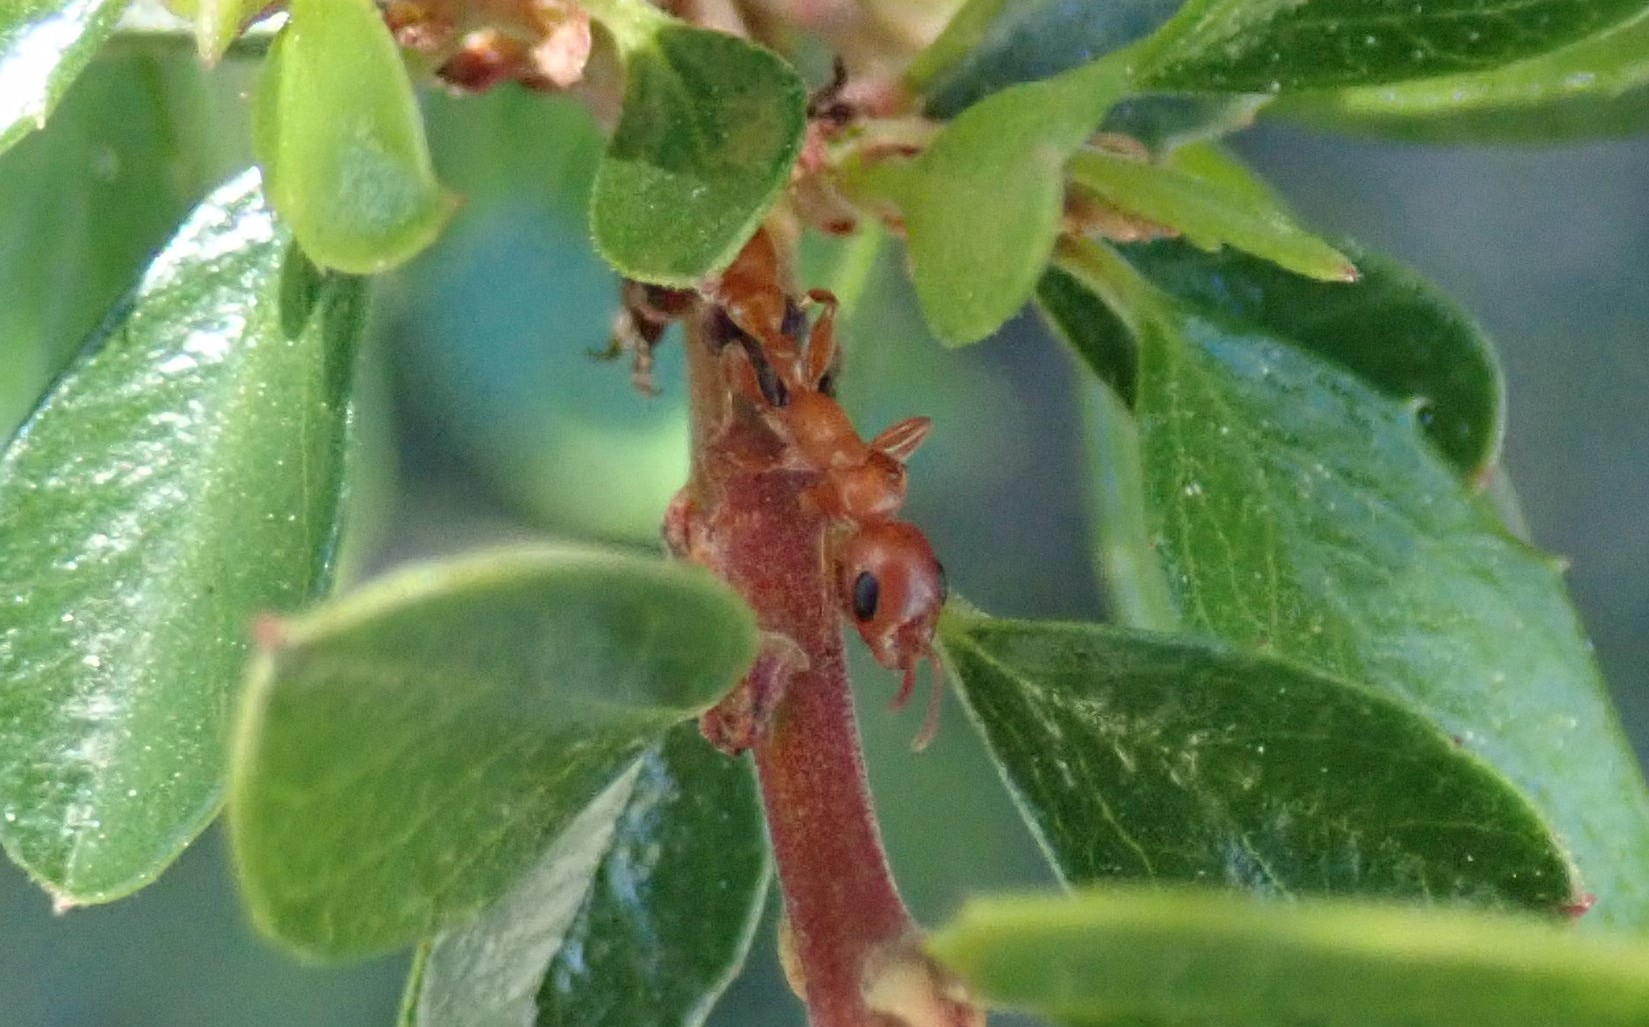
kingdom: Animalia
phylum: Arthropoda
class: Insecta
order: Hymenoptera
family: Formicidae
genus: Pseudomyrmex
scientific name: Pseudomyrmex apache
